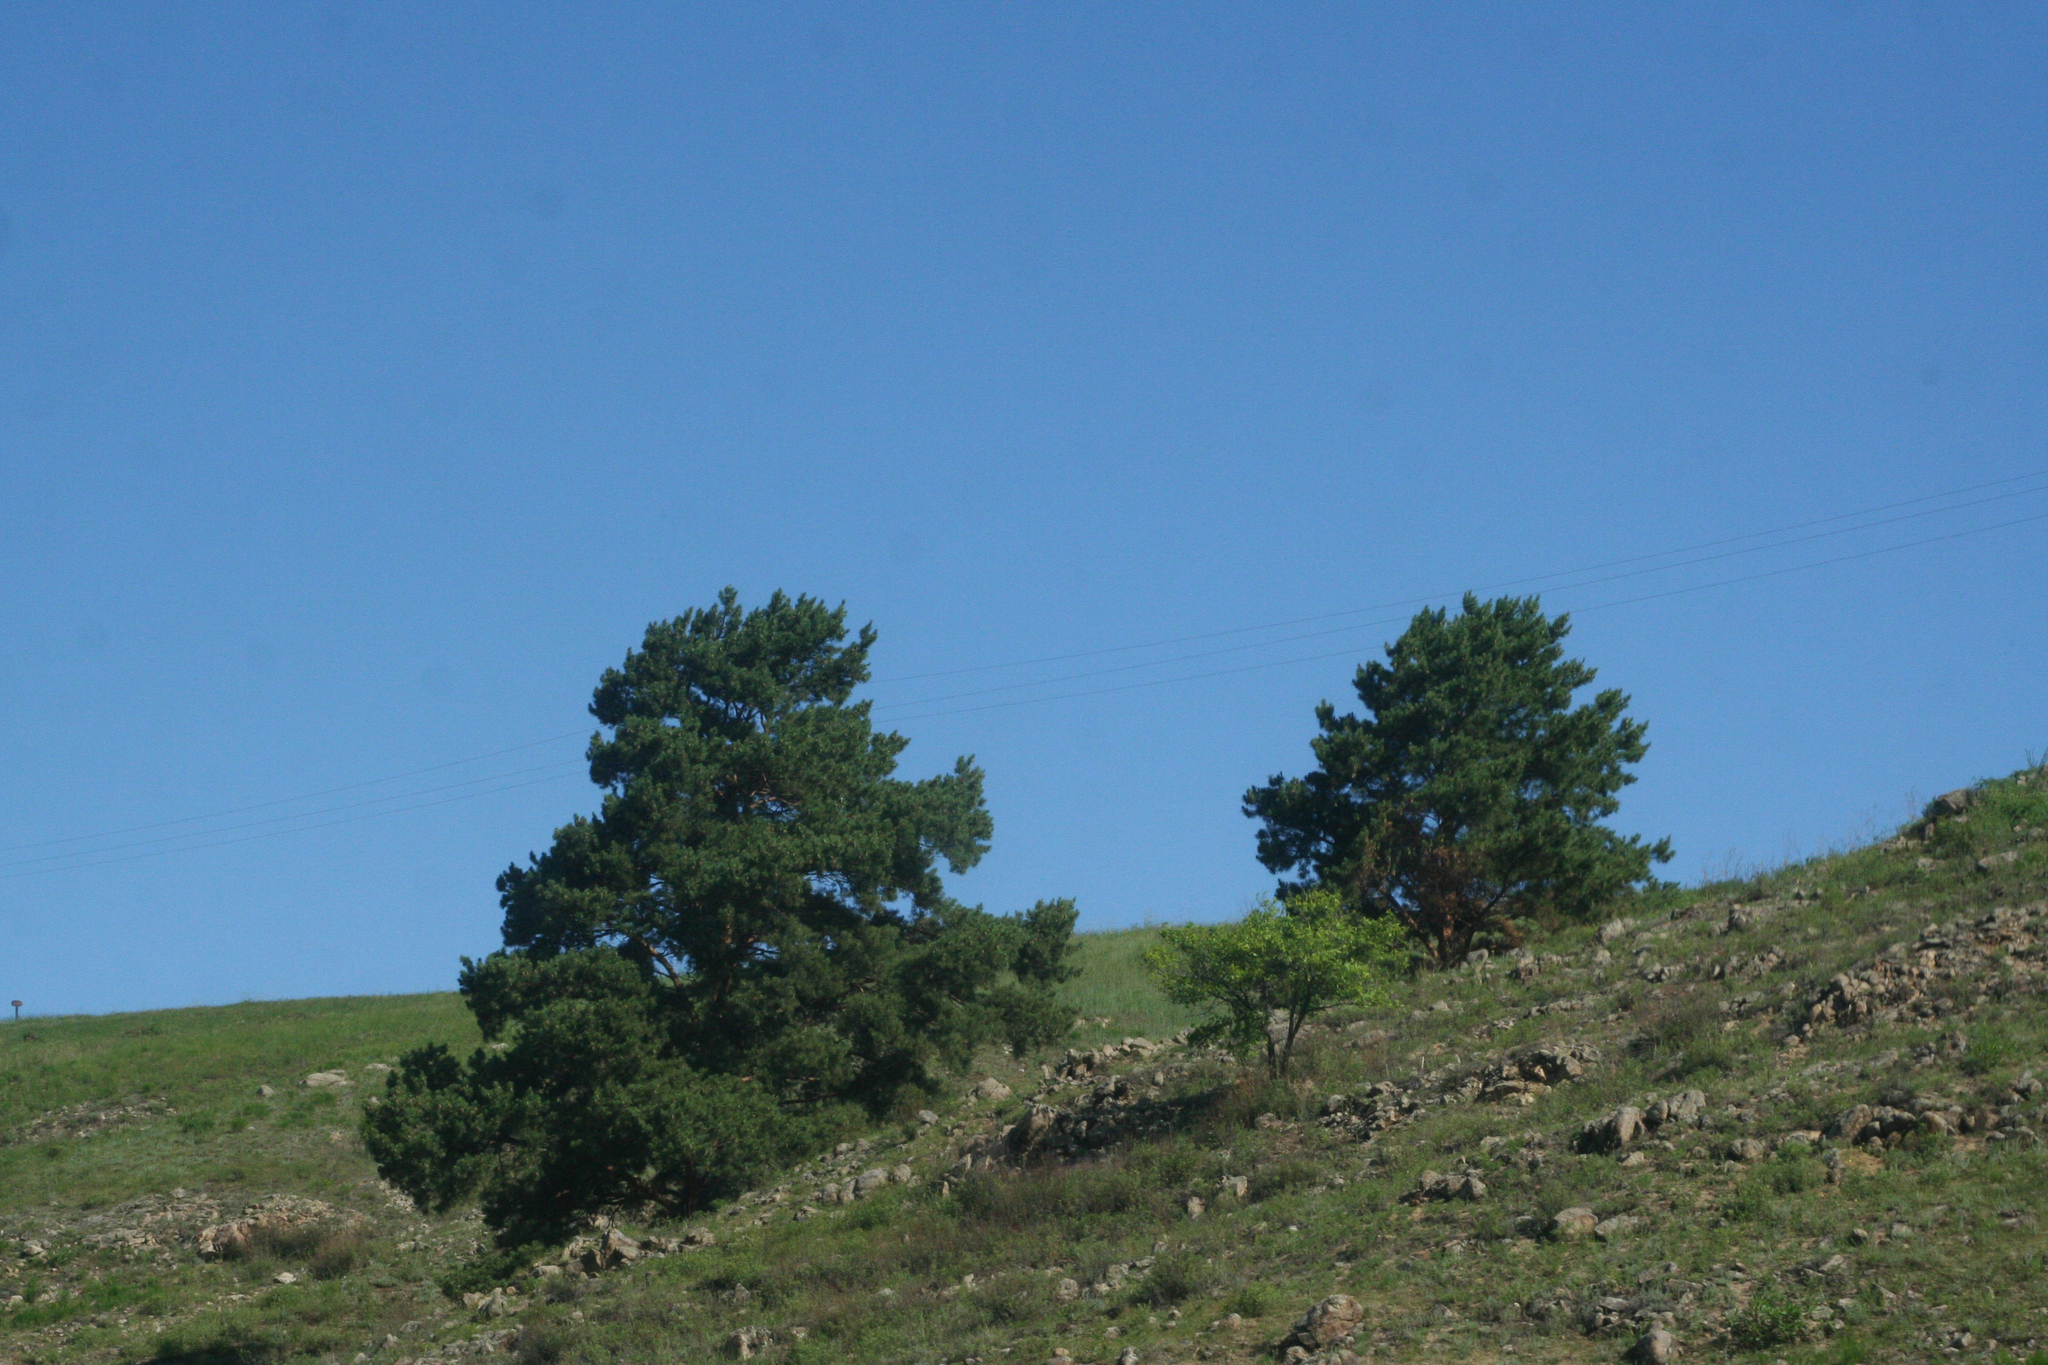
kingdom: Plantae
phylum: Tracheophyta
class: Pinopsida
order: Pinales
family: Pinaceae
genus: Pinus
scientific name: Pinus sylvestris
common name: Scots pine
